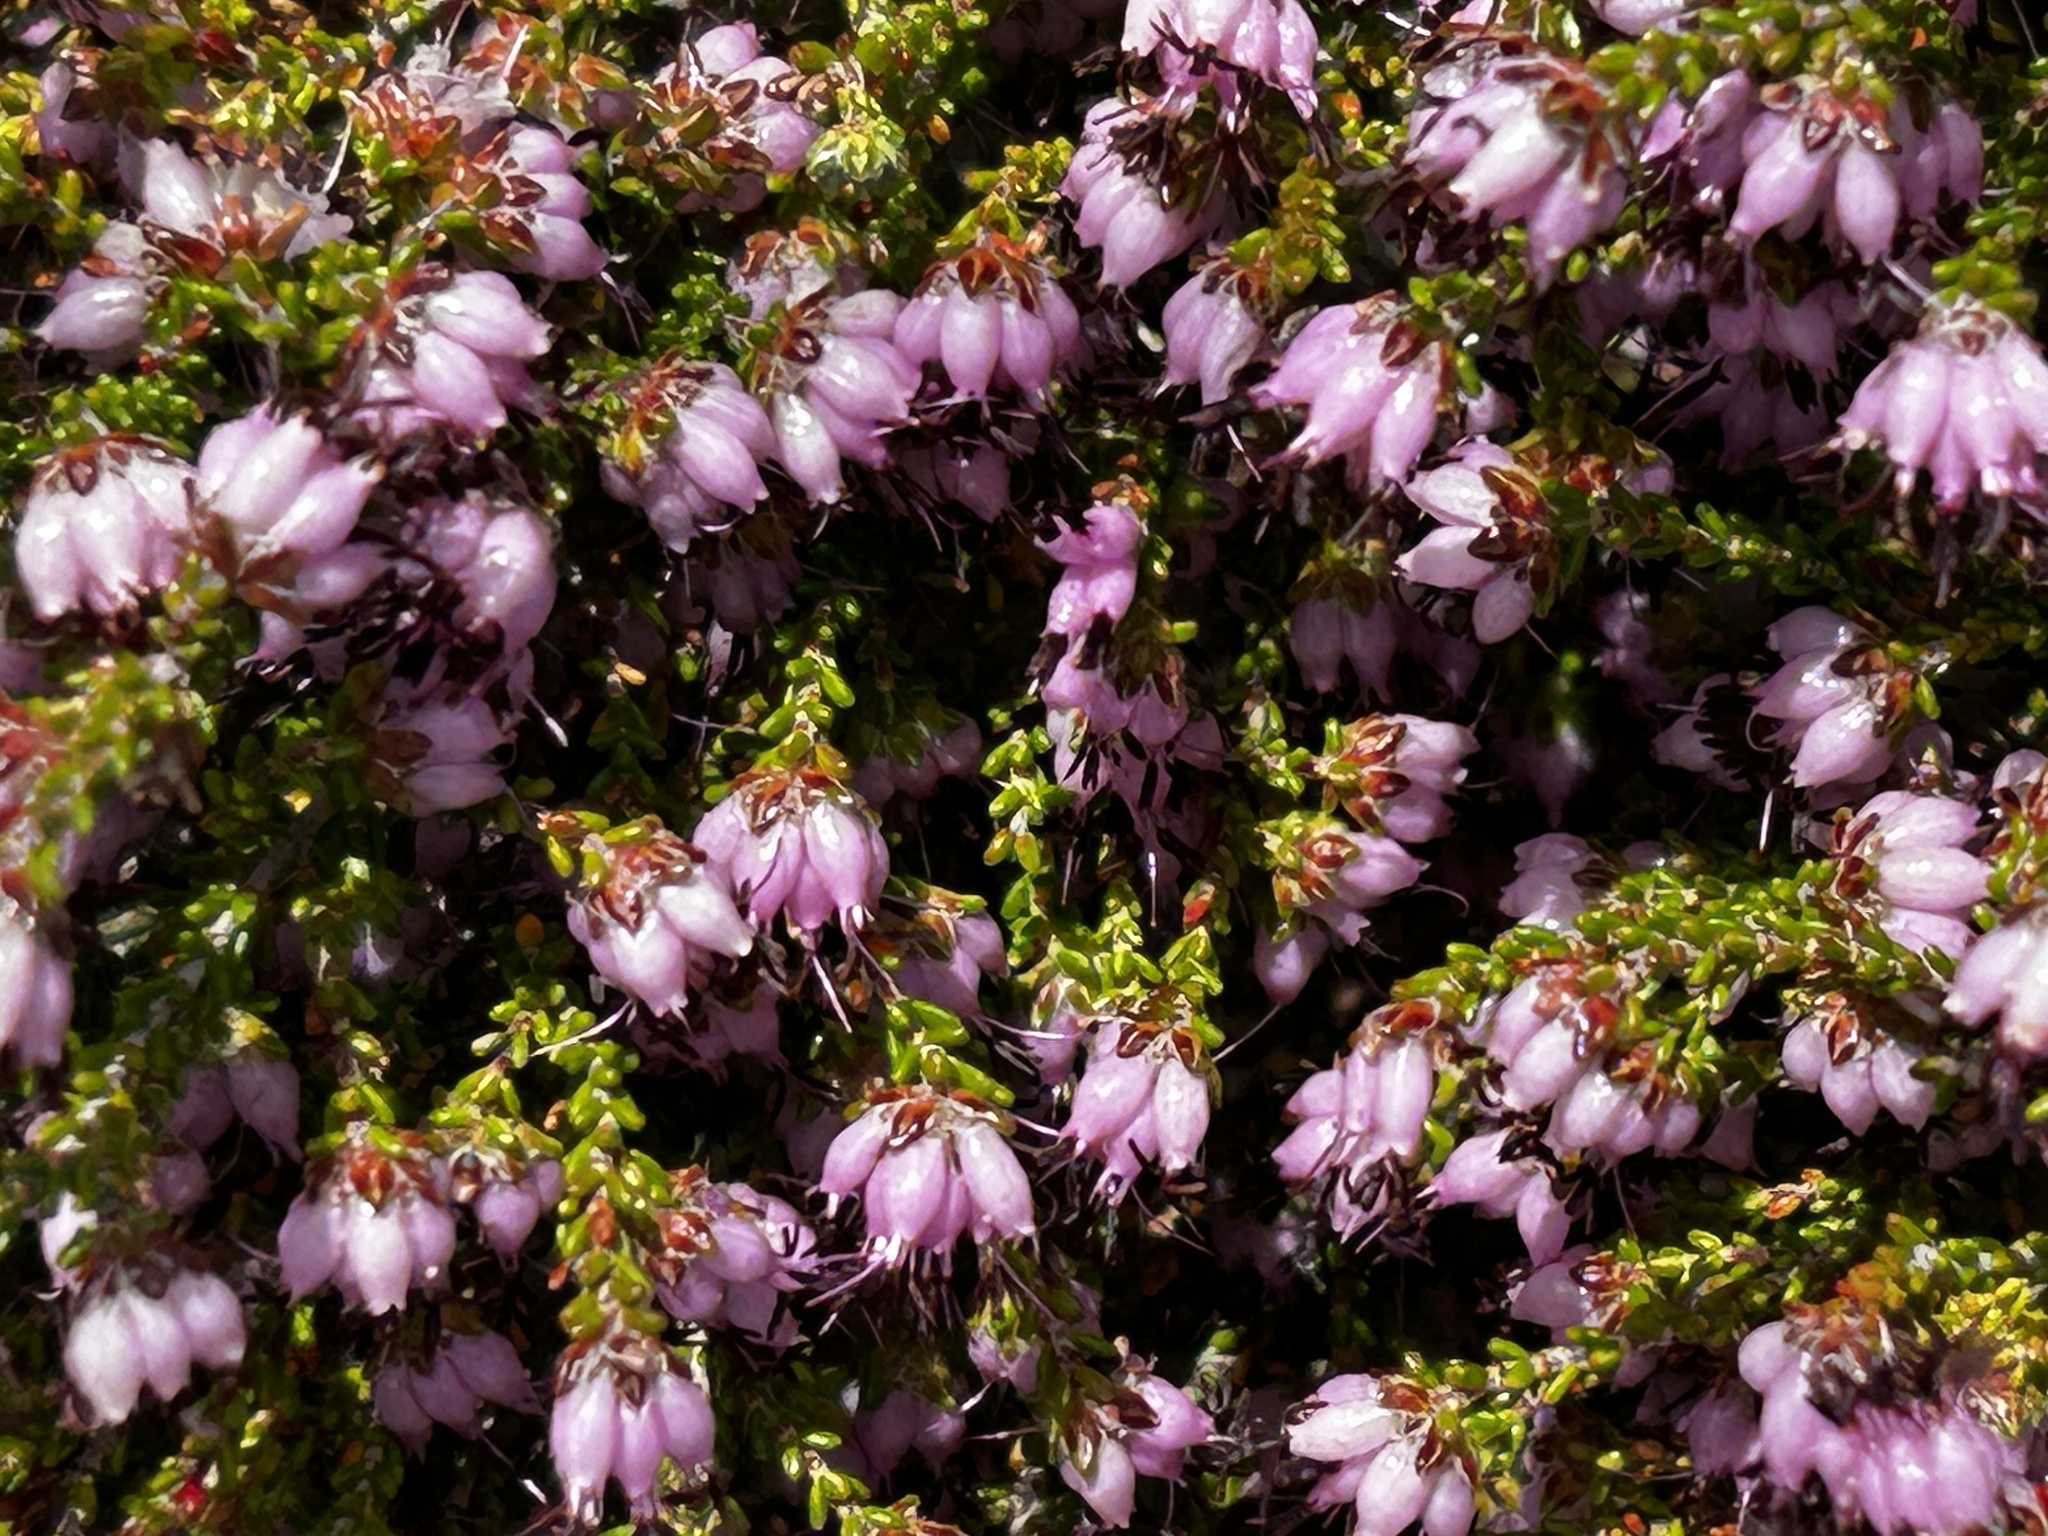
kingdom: Plantae
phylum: Tracheophyta
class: Magnoliopsida
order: Ericales
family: Ericaceae
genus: Erica
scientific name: Erica viscosissima
